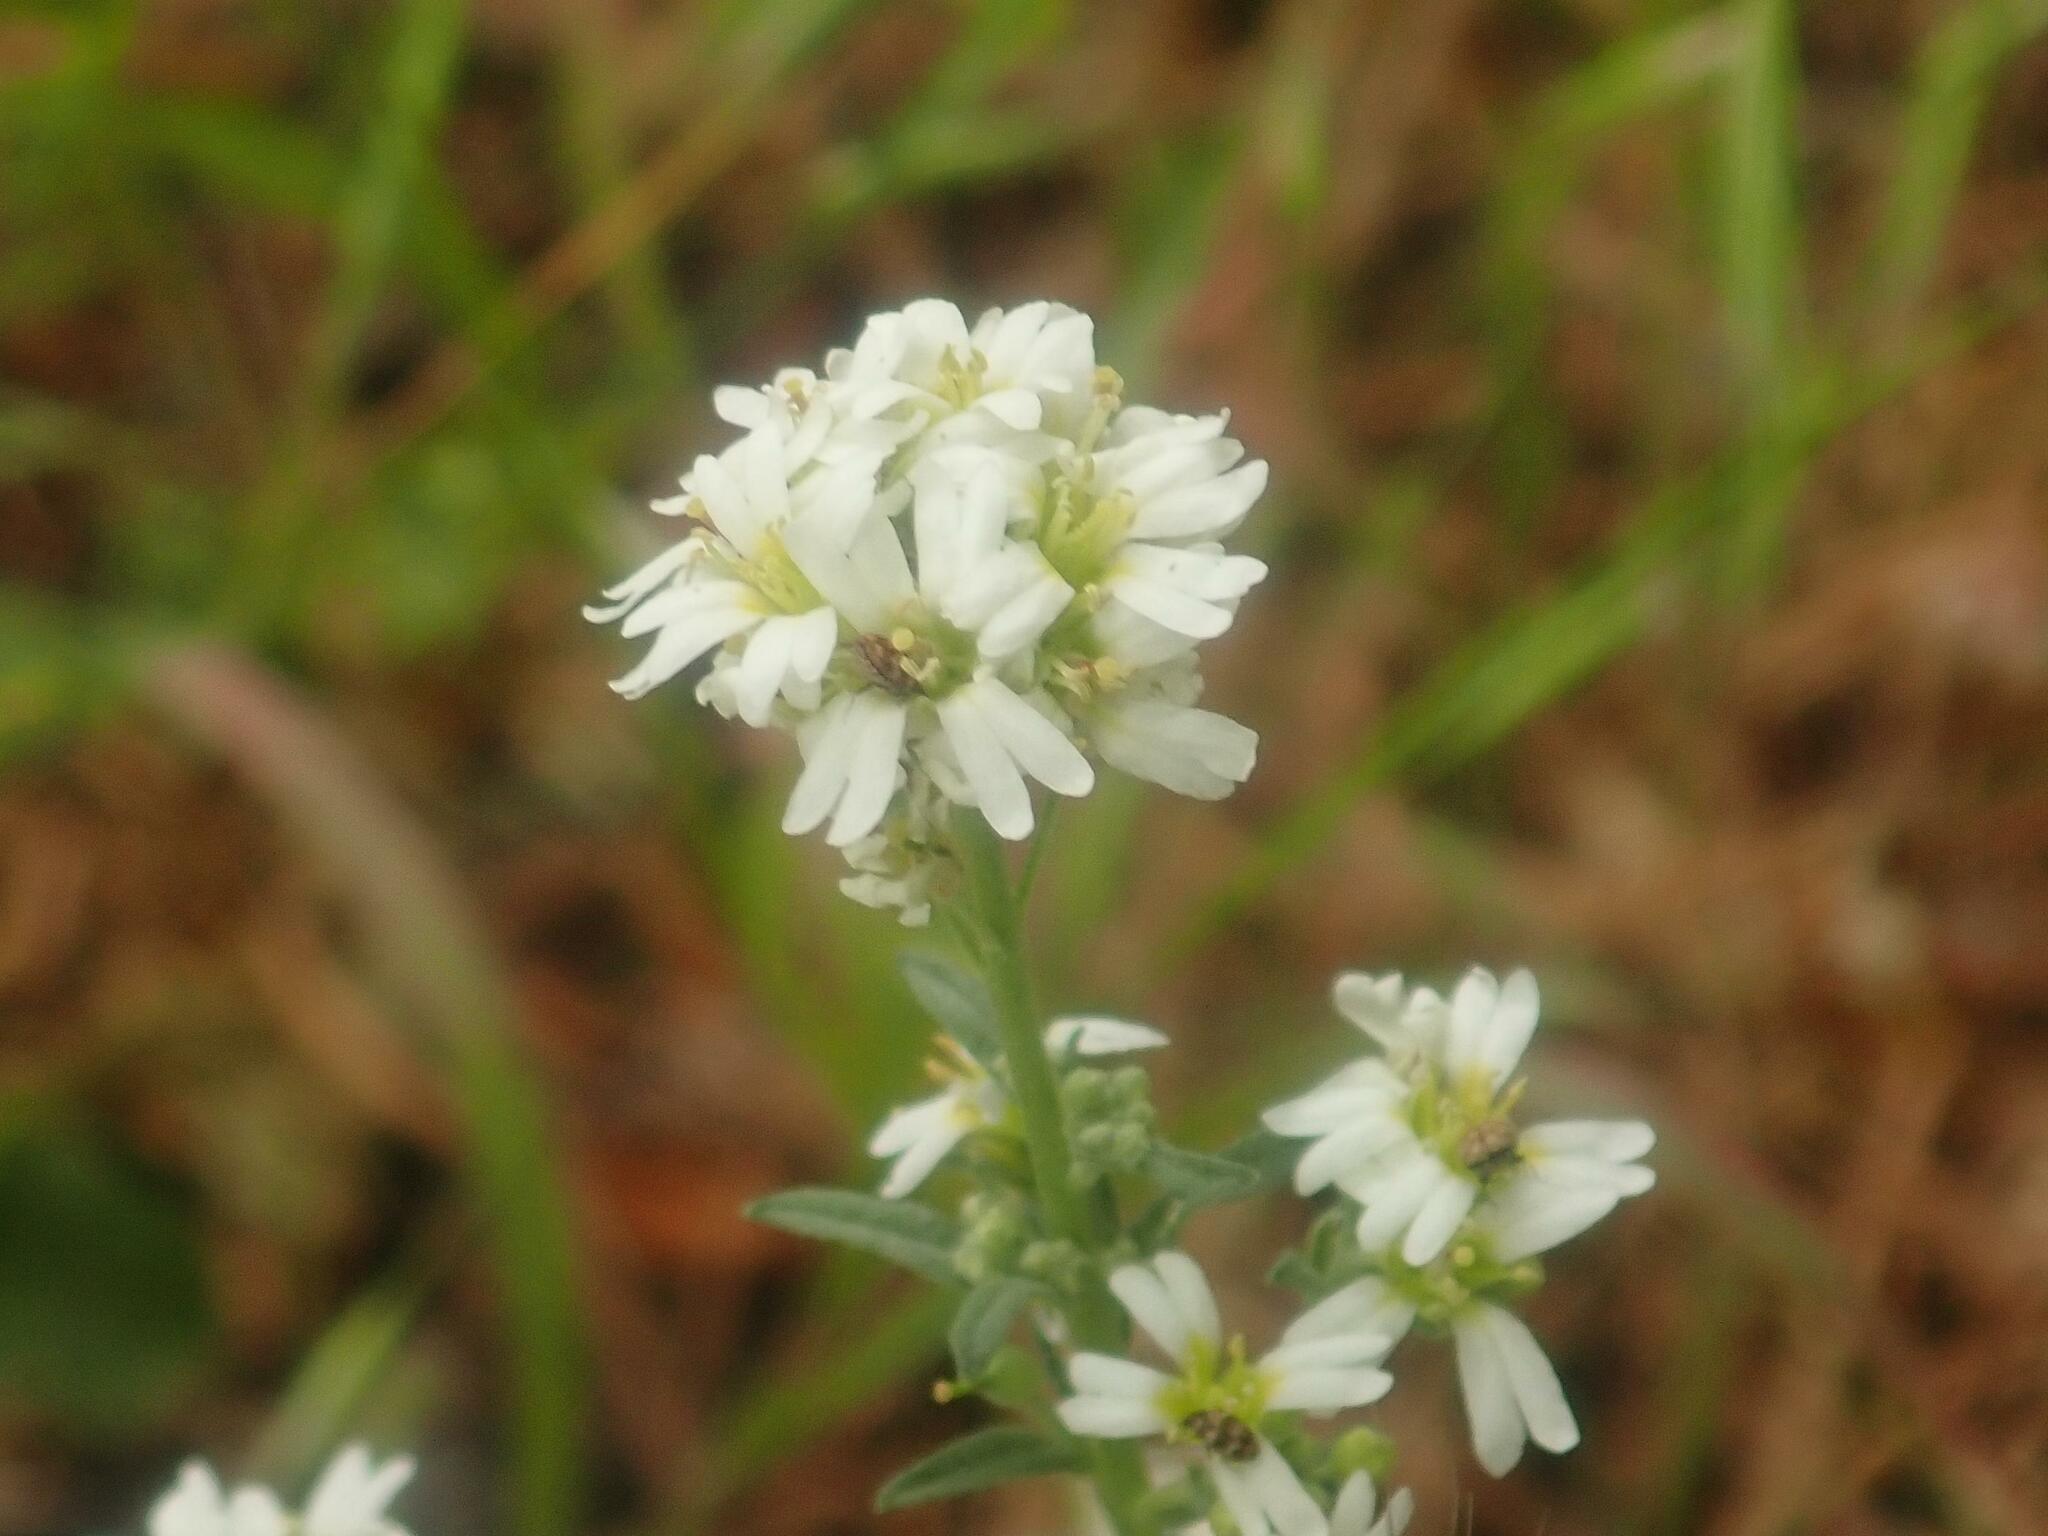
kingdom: Plantae
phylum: Tracheophyta
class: Magnoliopsida
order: Brassicales
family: Brassicaceae
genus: Berteroa
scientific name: Berteroa incana
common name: Hoary alison
